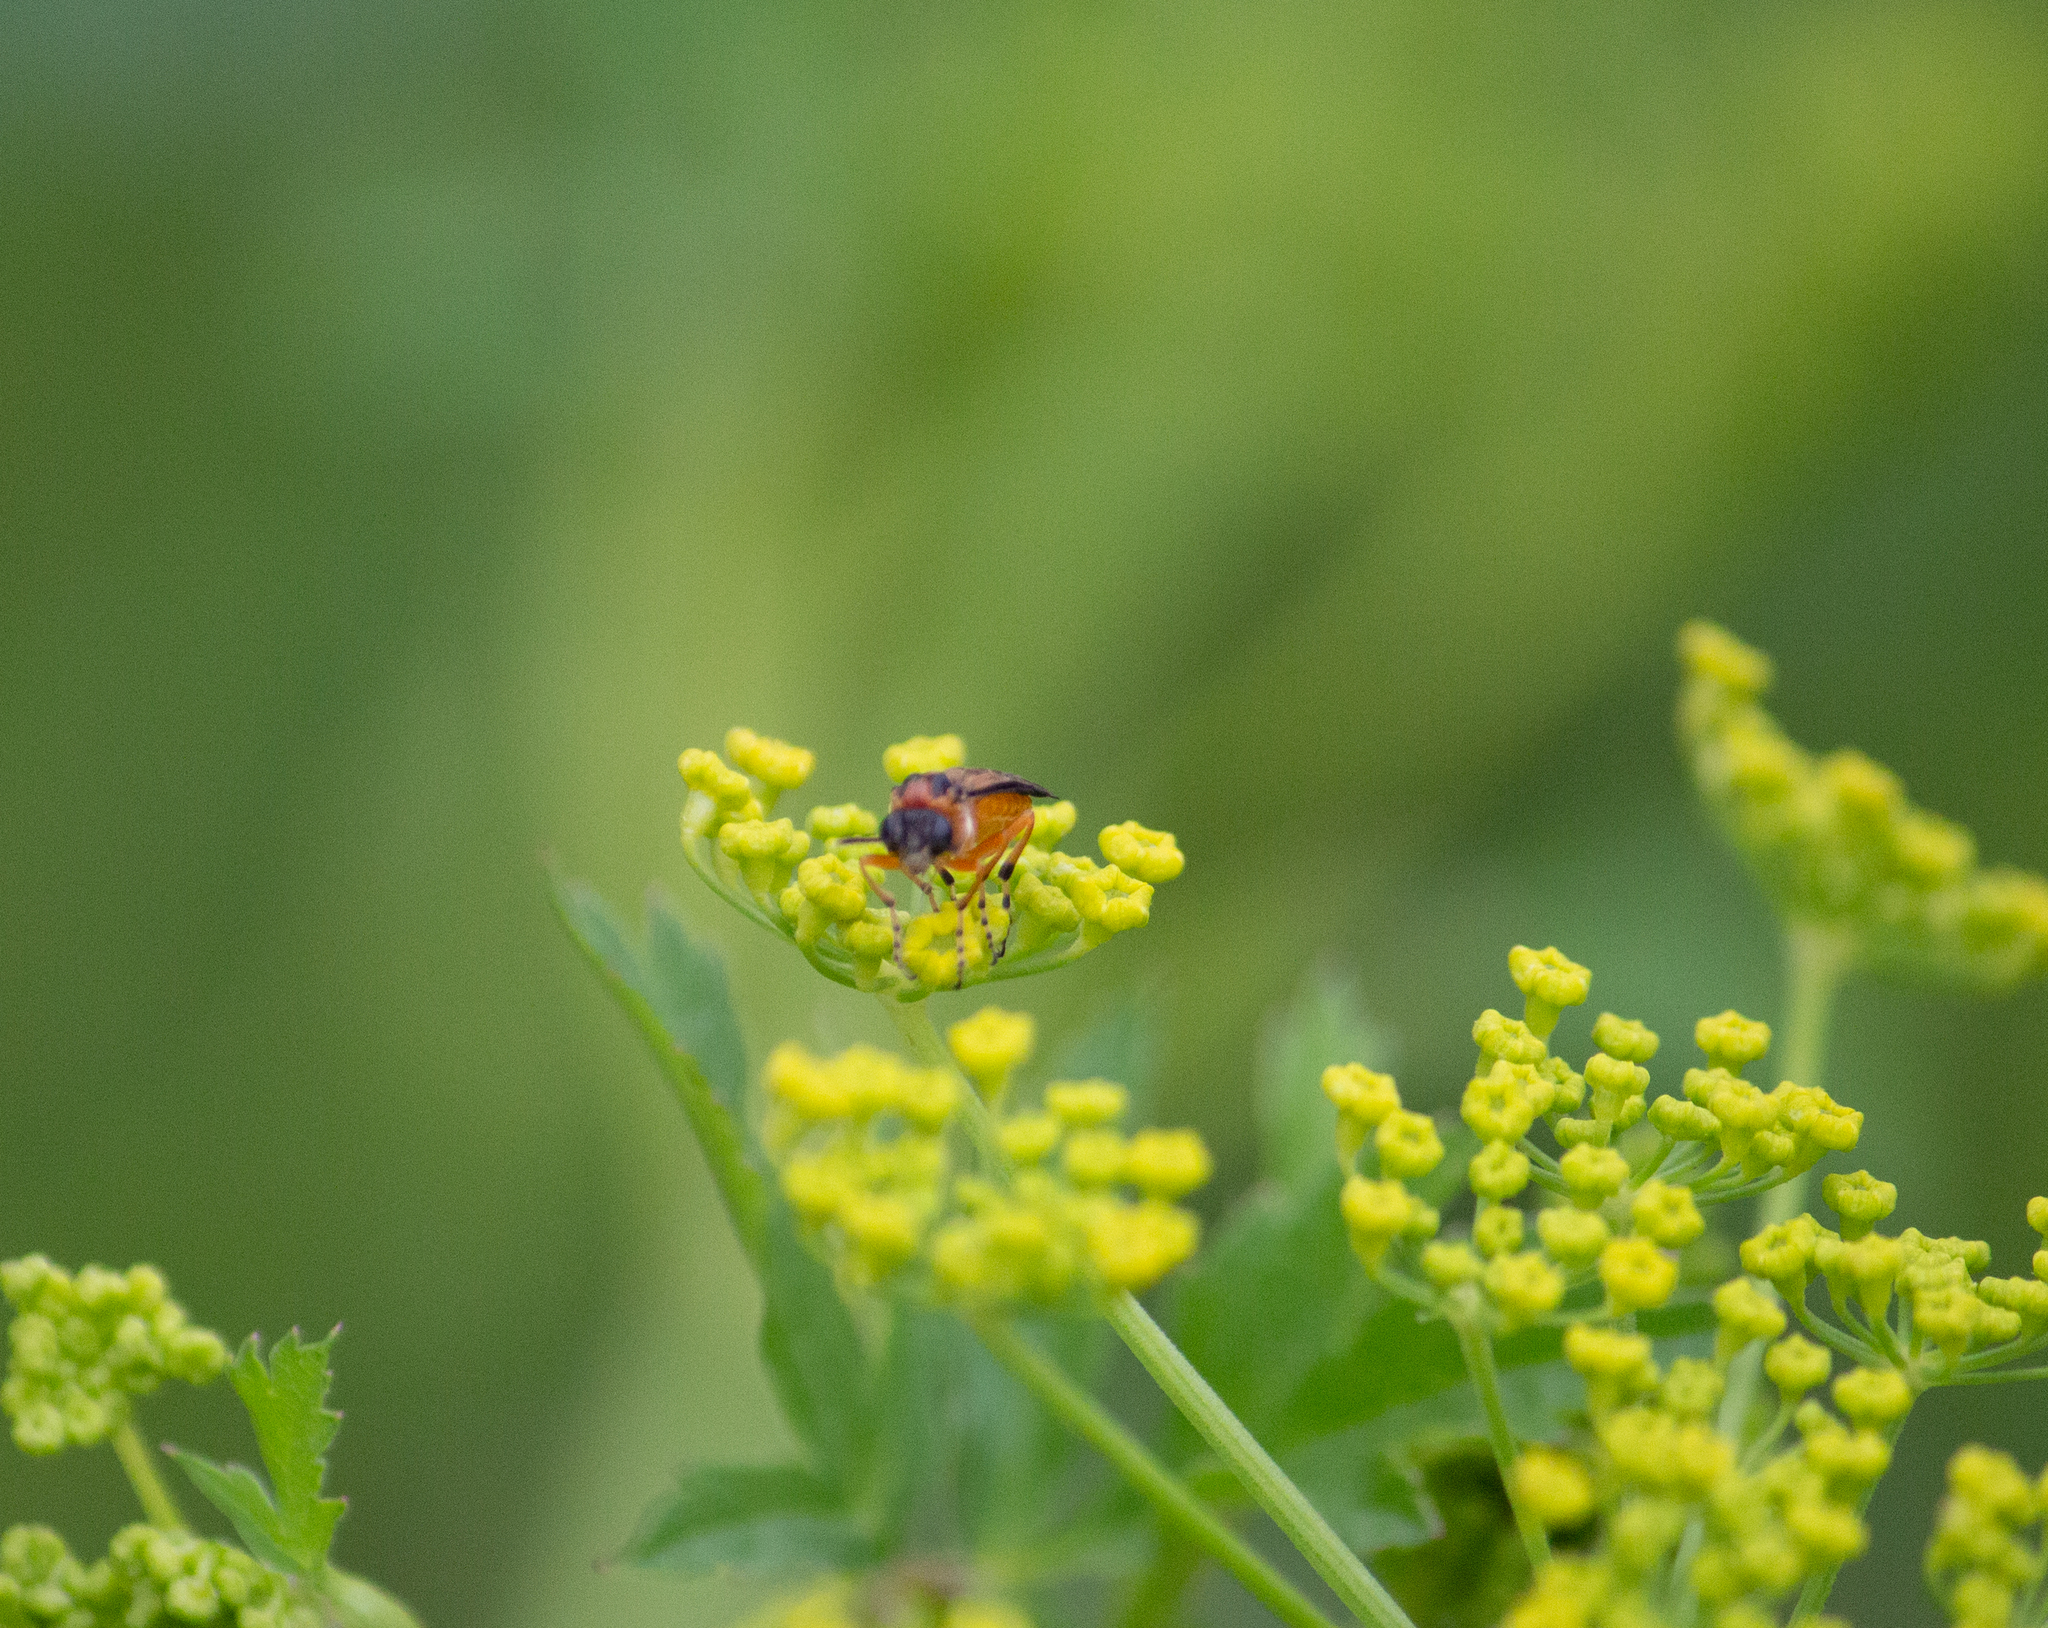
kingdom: Animalia
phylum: Arthropoda
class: Insecta
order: Hymenoptera
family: Tenthredinidae
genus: Athalia
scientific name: Athalia rosae
